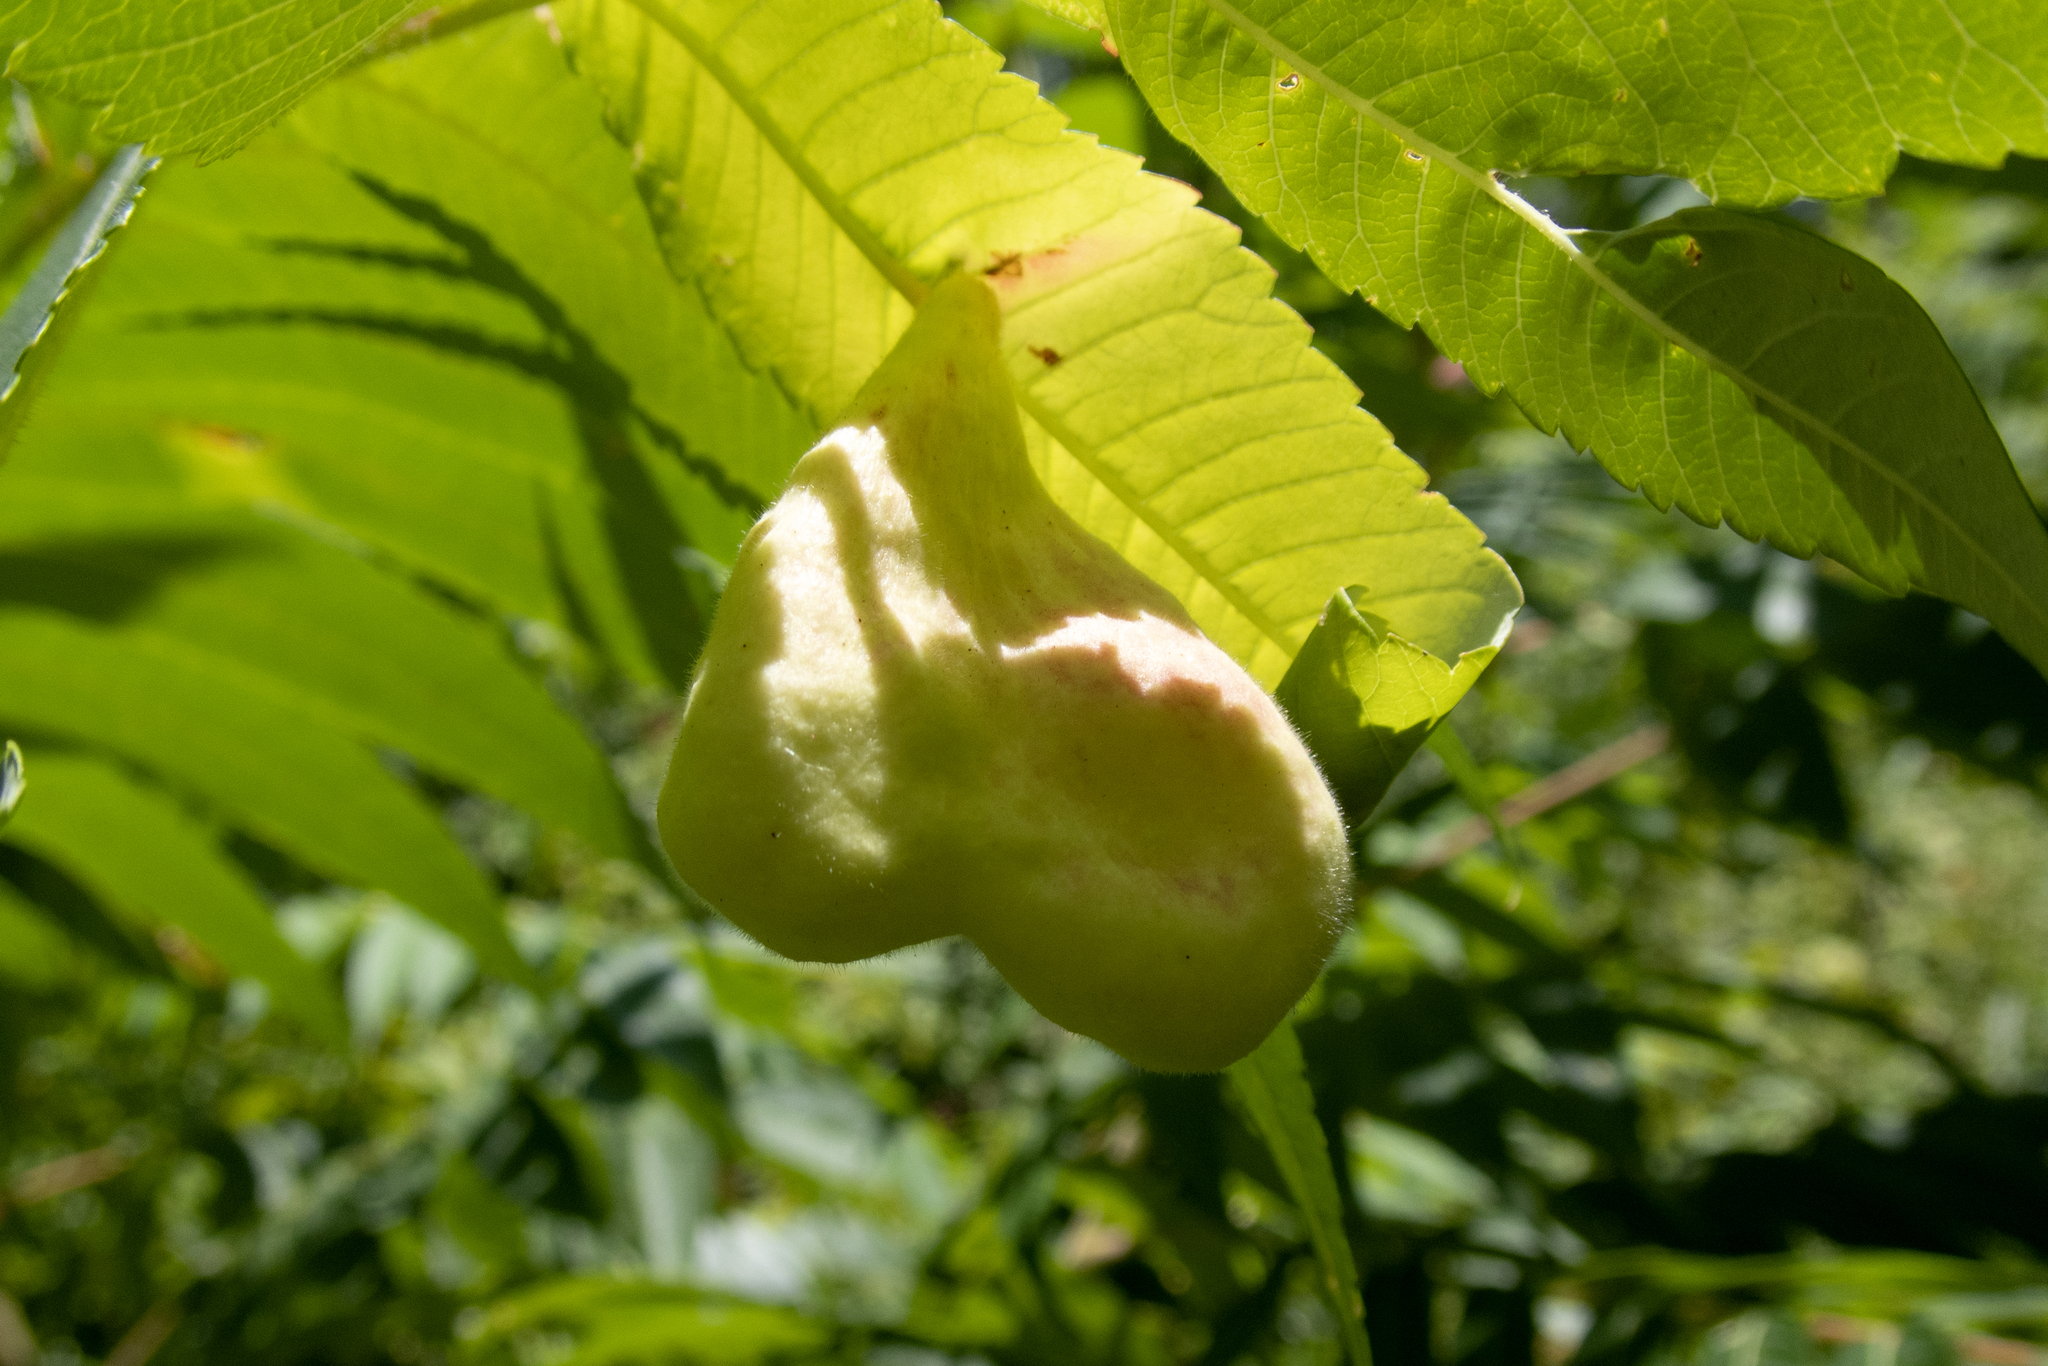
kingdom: Animalia
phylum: Arthropoda
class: Insecta
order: Hemiptera
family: Aphididae
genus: Melaphis
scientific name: Melaphis rhois
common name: Sumac gall aphid
